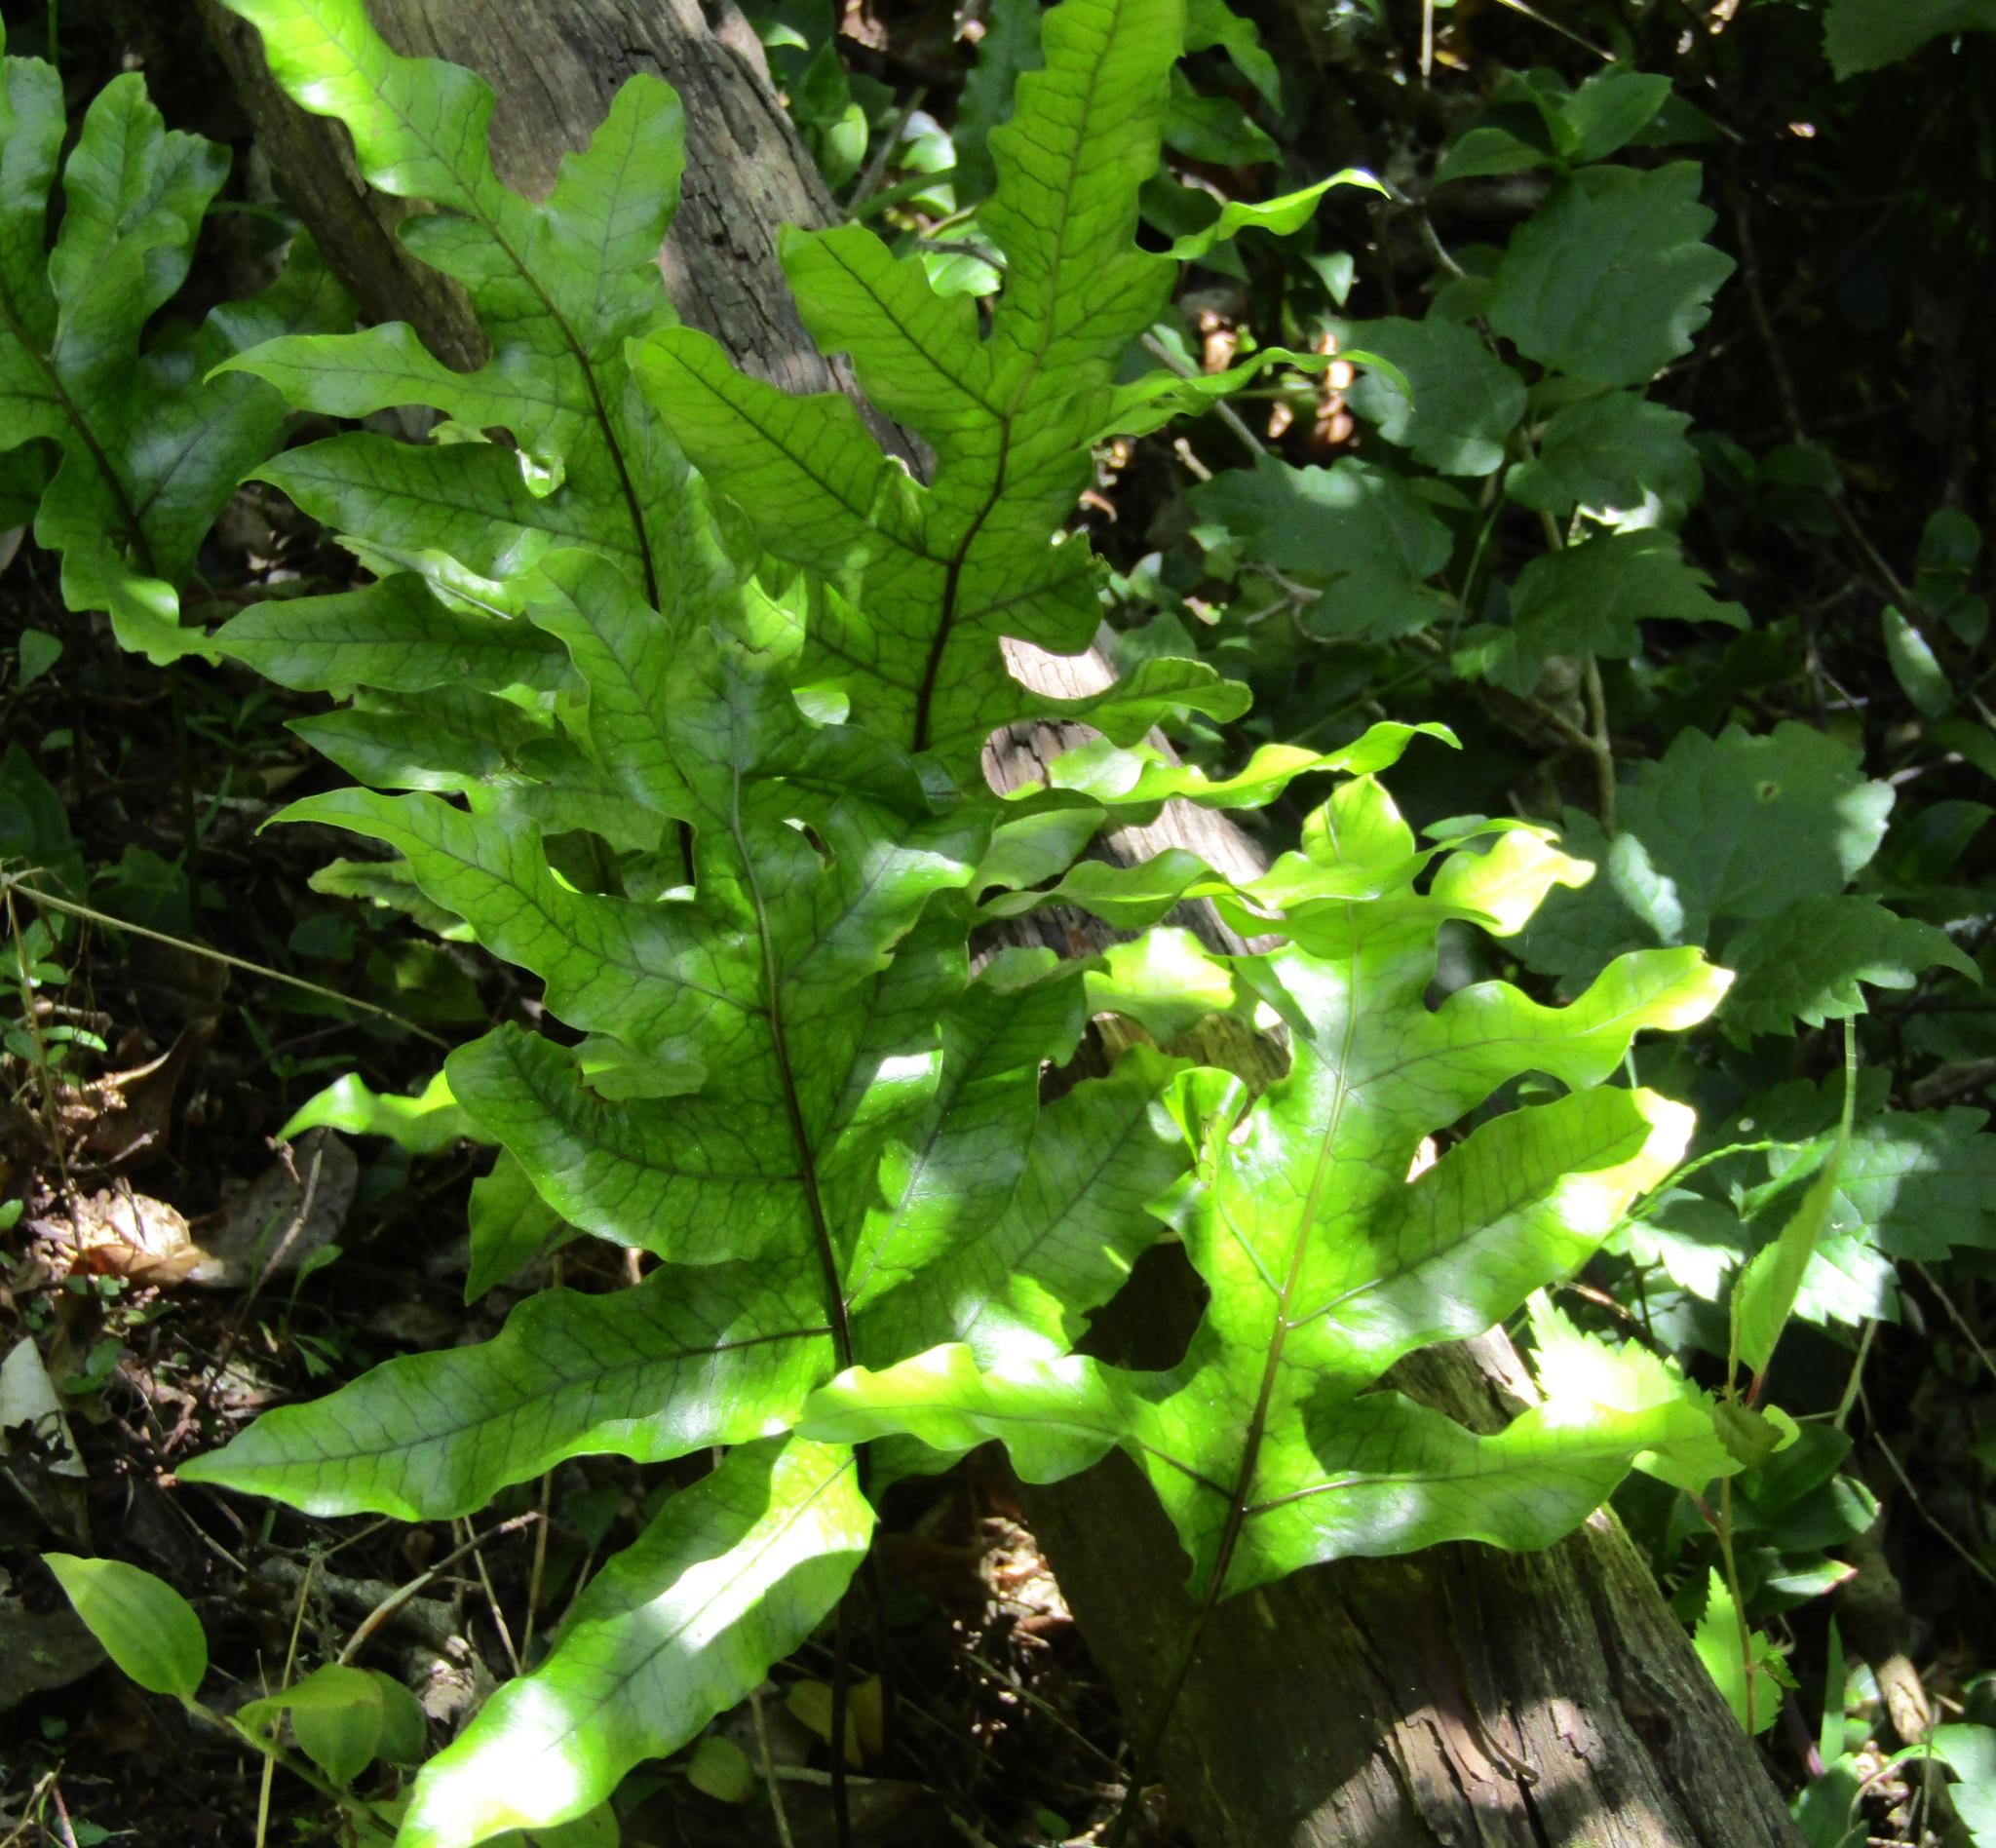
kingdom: Plantae
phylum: Tracheophyta
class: Polypodiopsida
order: Polypodiales
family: Polypodiaceae
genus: Lecanopteris
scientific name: Lecanopteris pustulata
